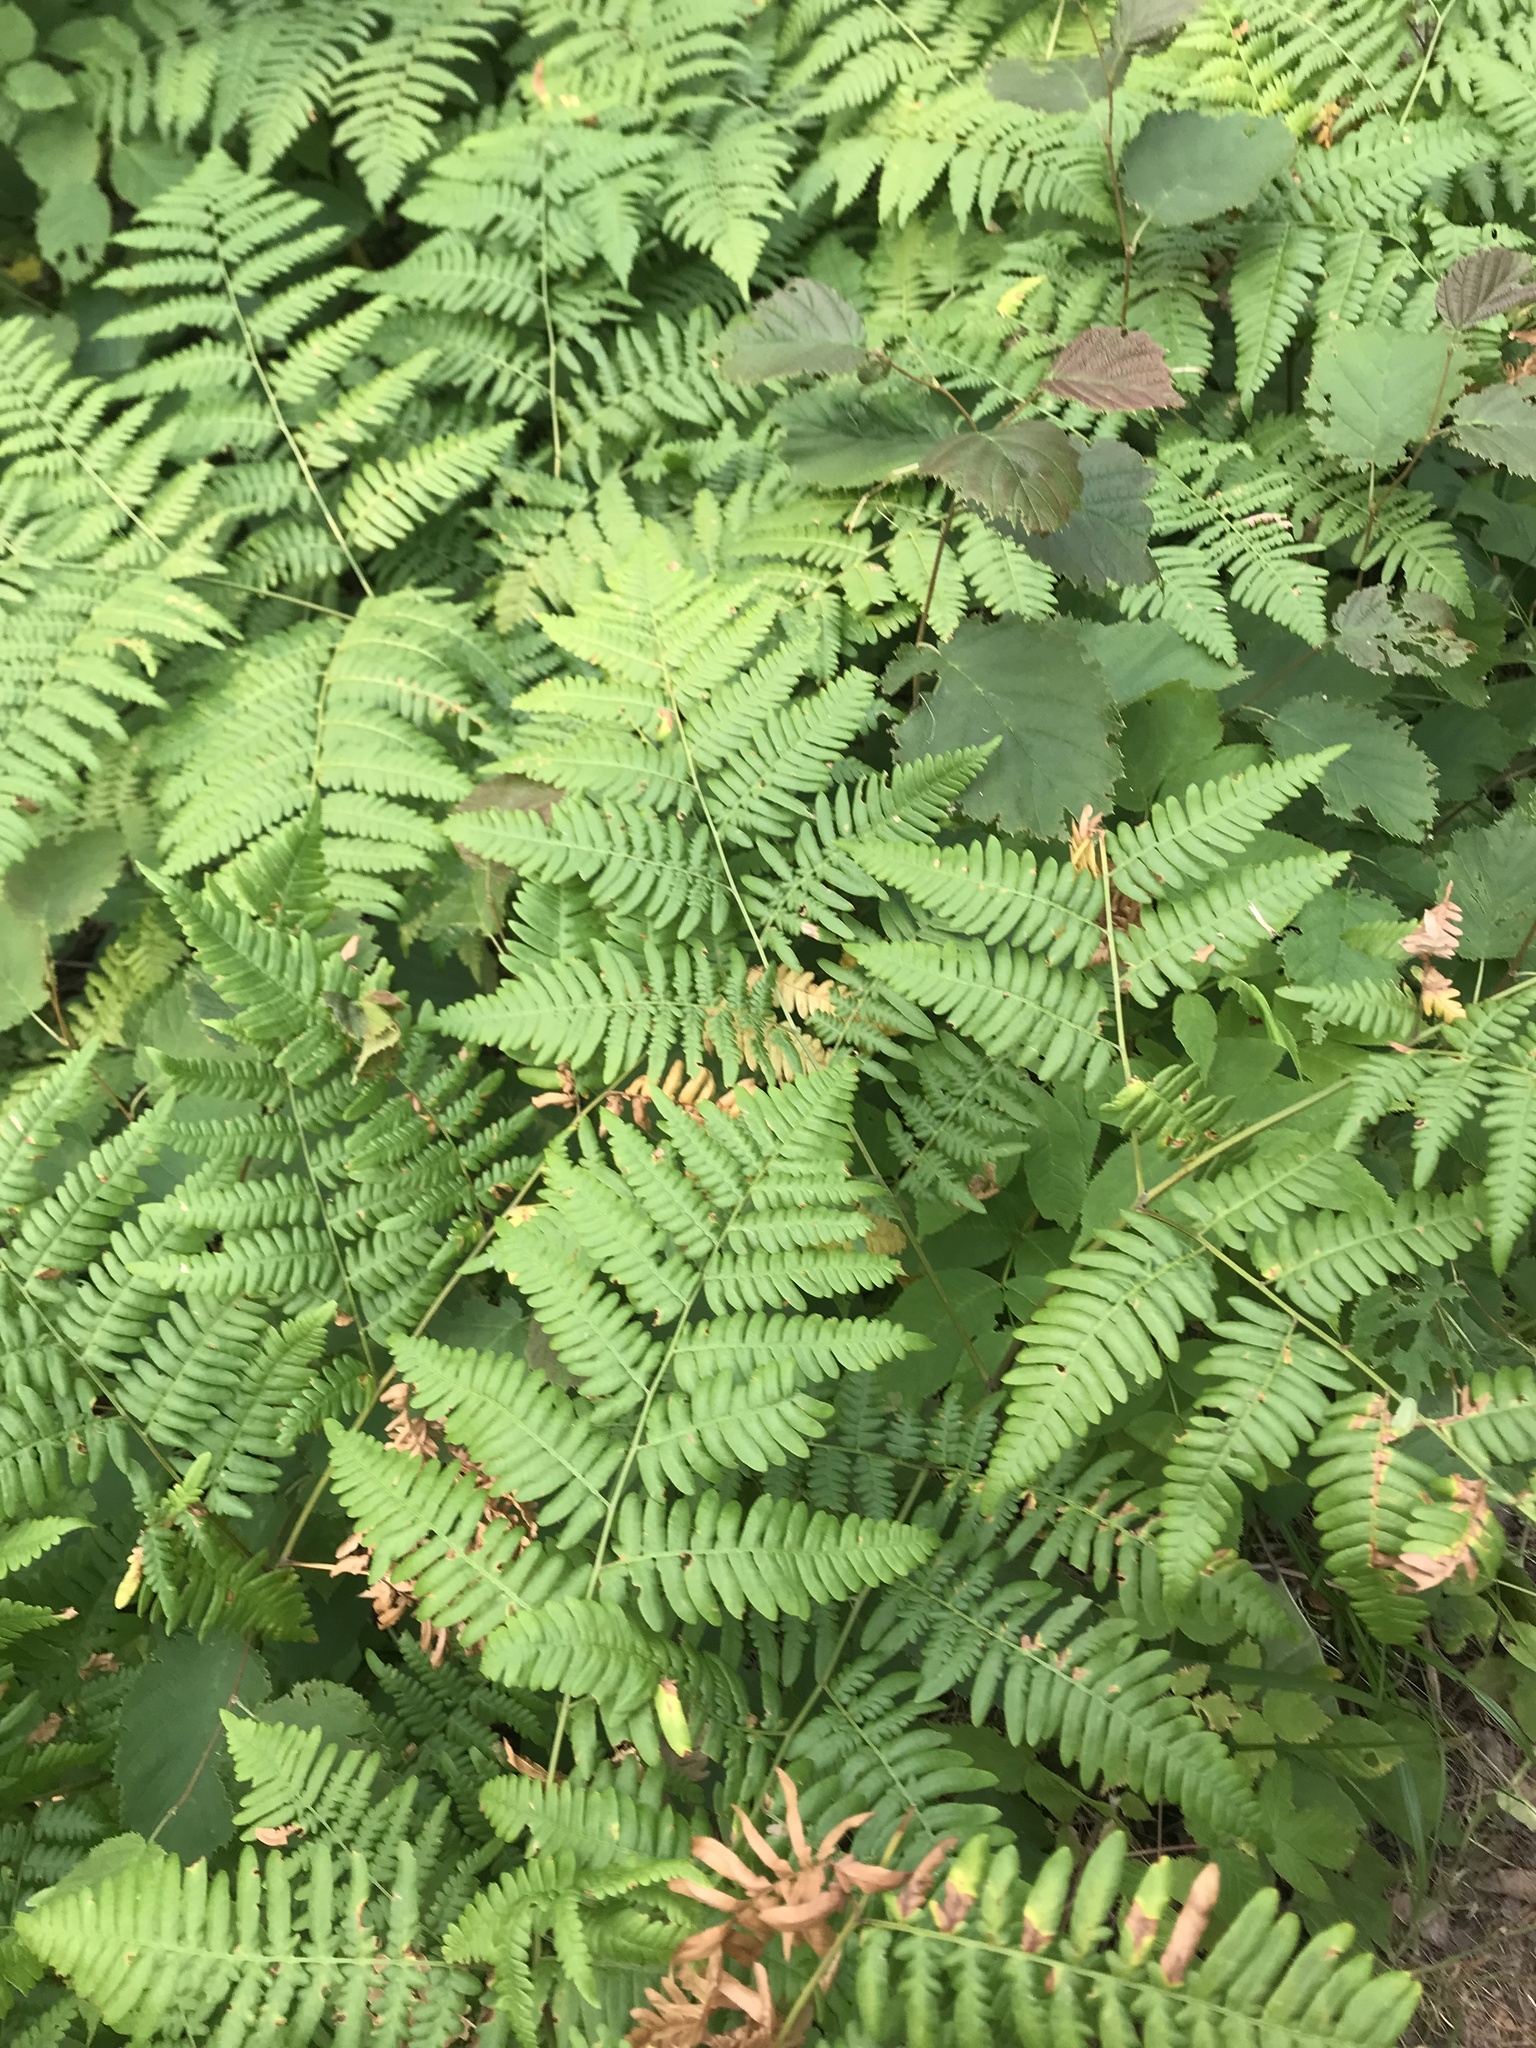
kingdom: Plantae
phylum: Tracheophyta
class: Polypodiopsida
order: Polypodiales
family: Dennstaedtiaceae
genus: Pteridium
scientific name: Pteridium aquilinum
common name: Bracken
